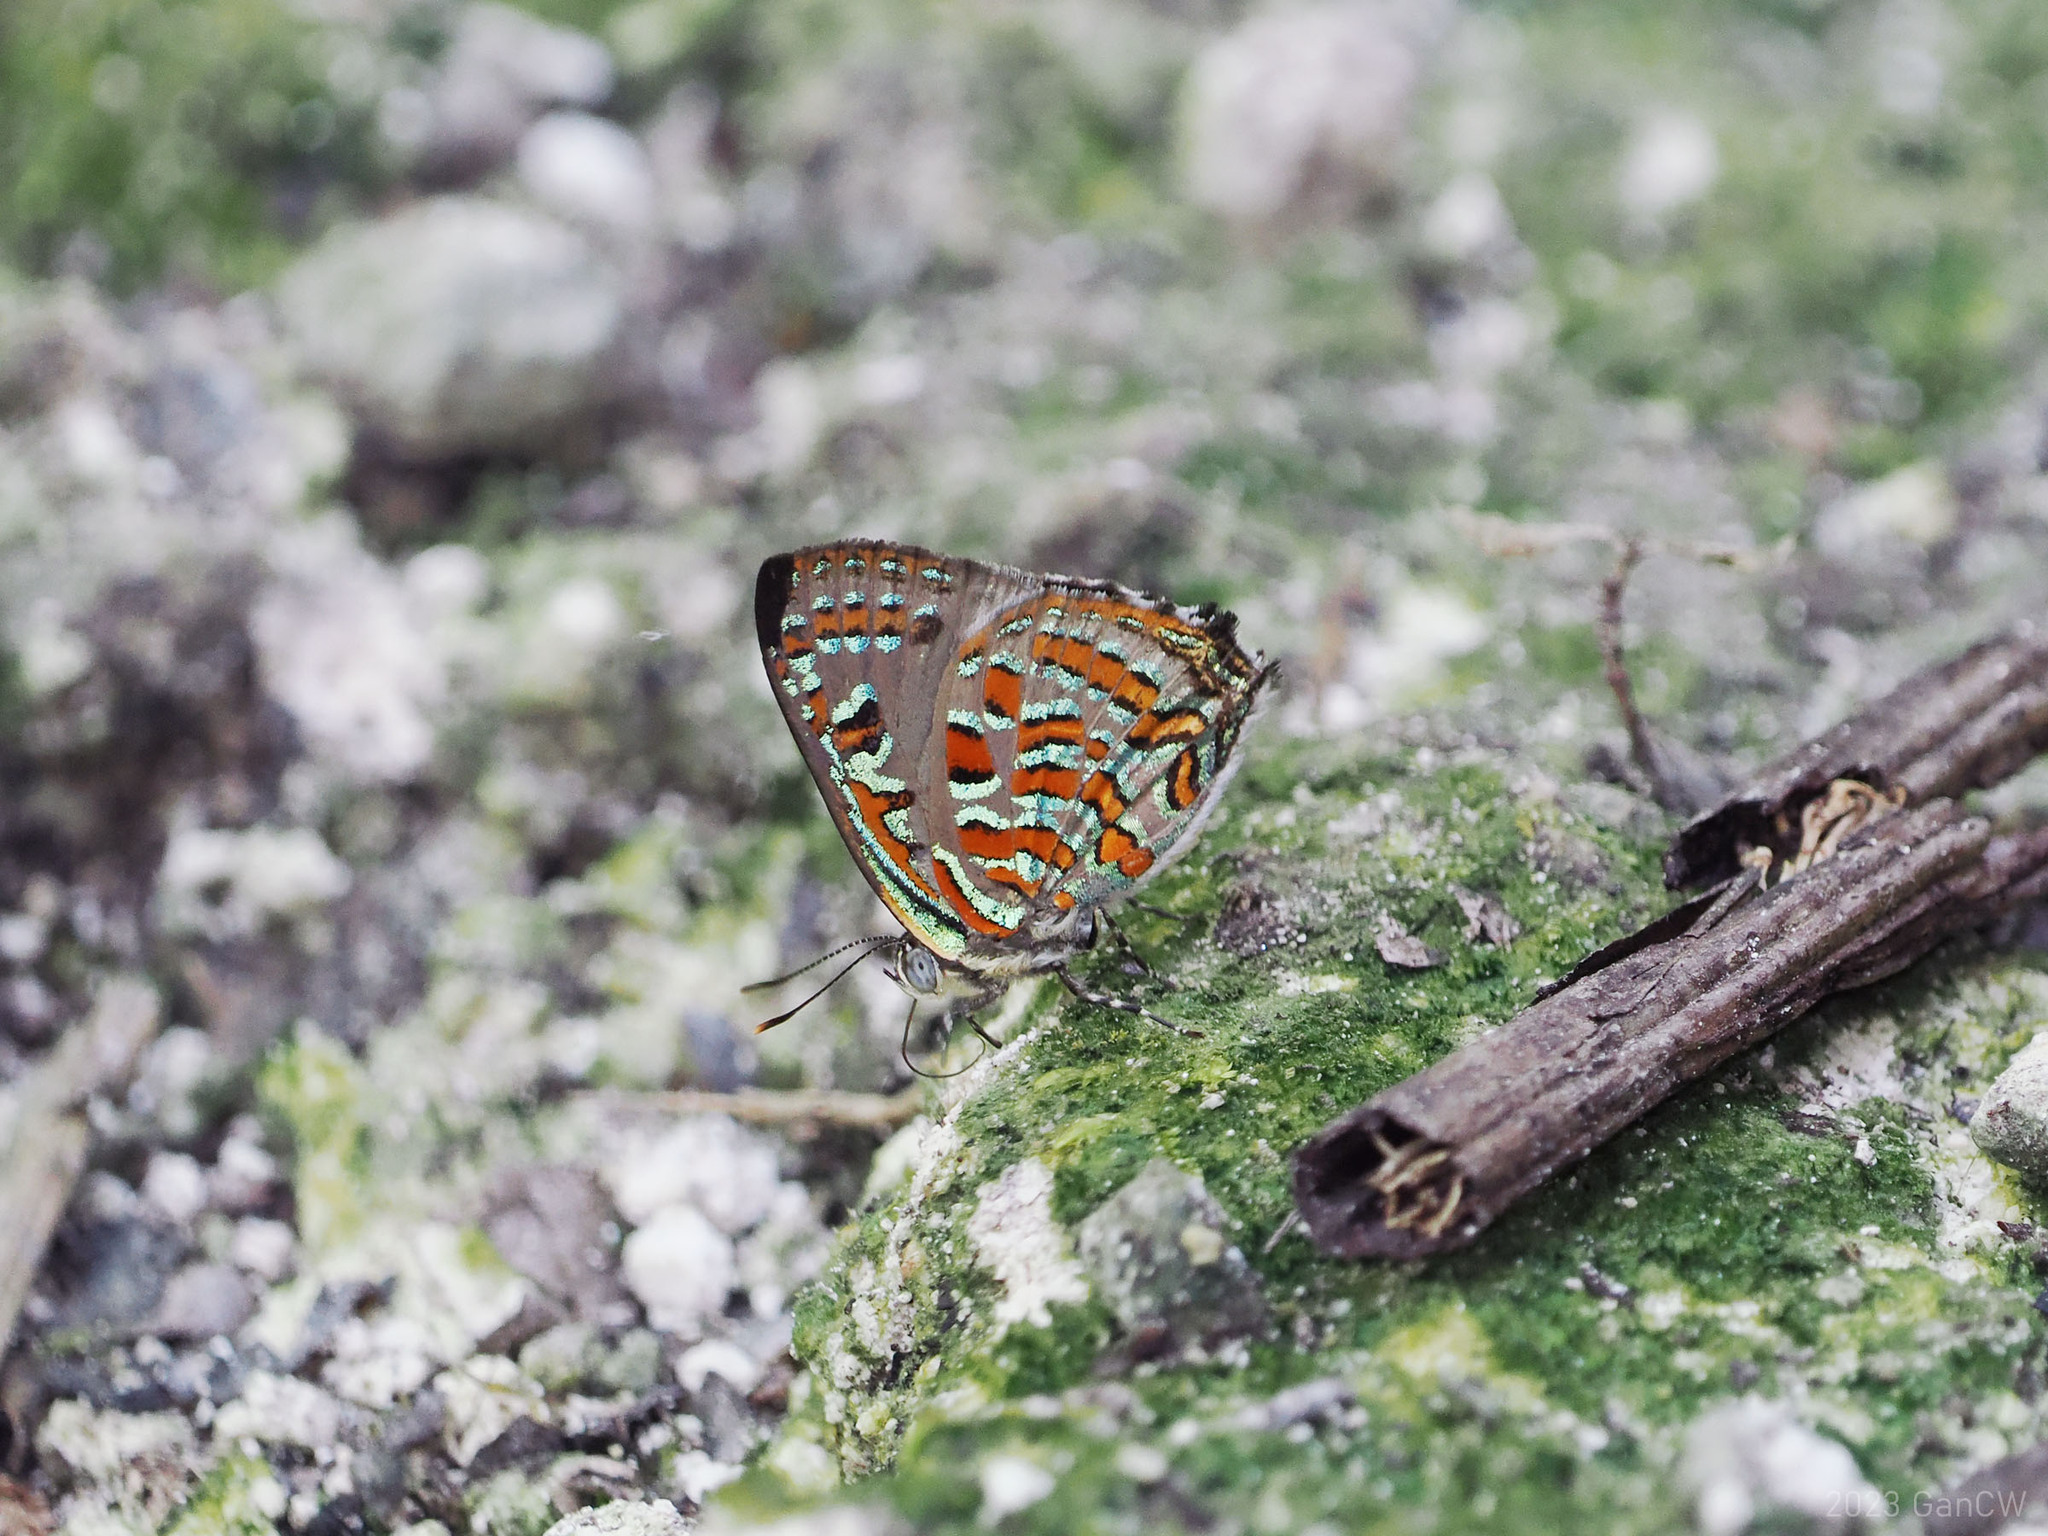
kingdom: Animalia
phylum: Arthropoda
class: Insecta
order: Lepidoptera
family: Lycaenidae
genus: Hypochrysops
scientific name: Hypochrysops pythias
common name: Peacock jewel
